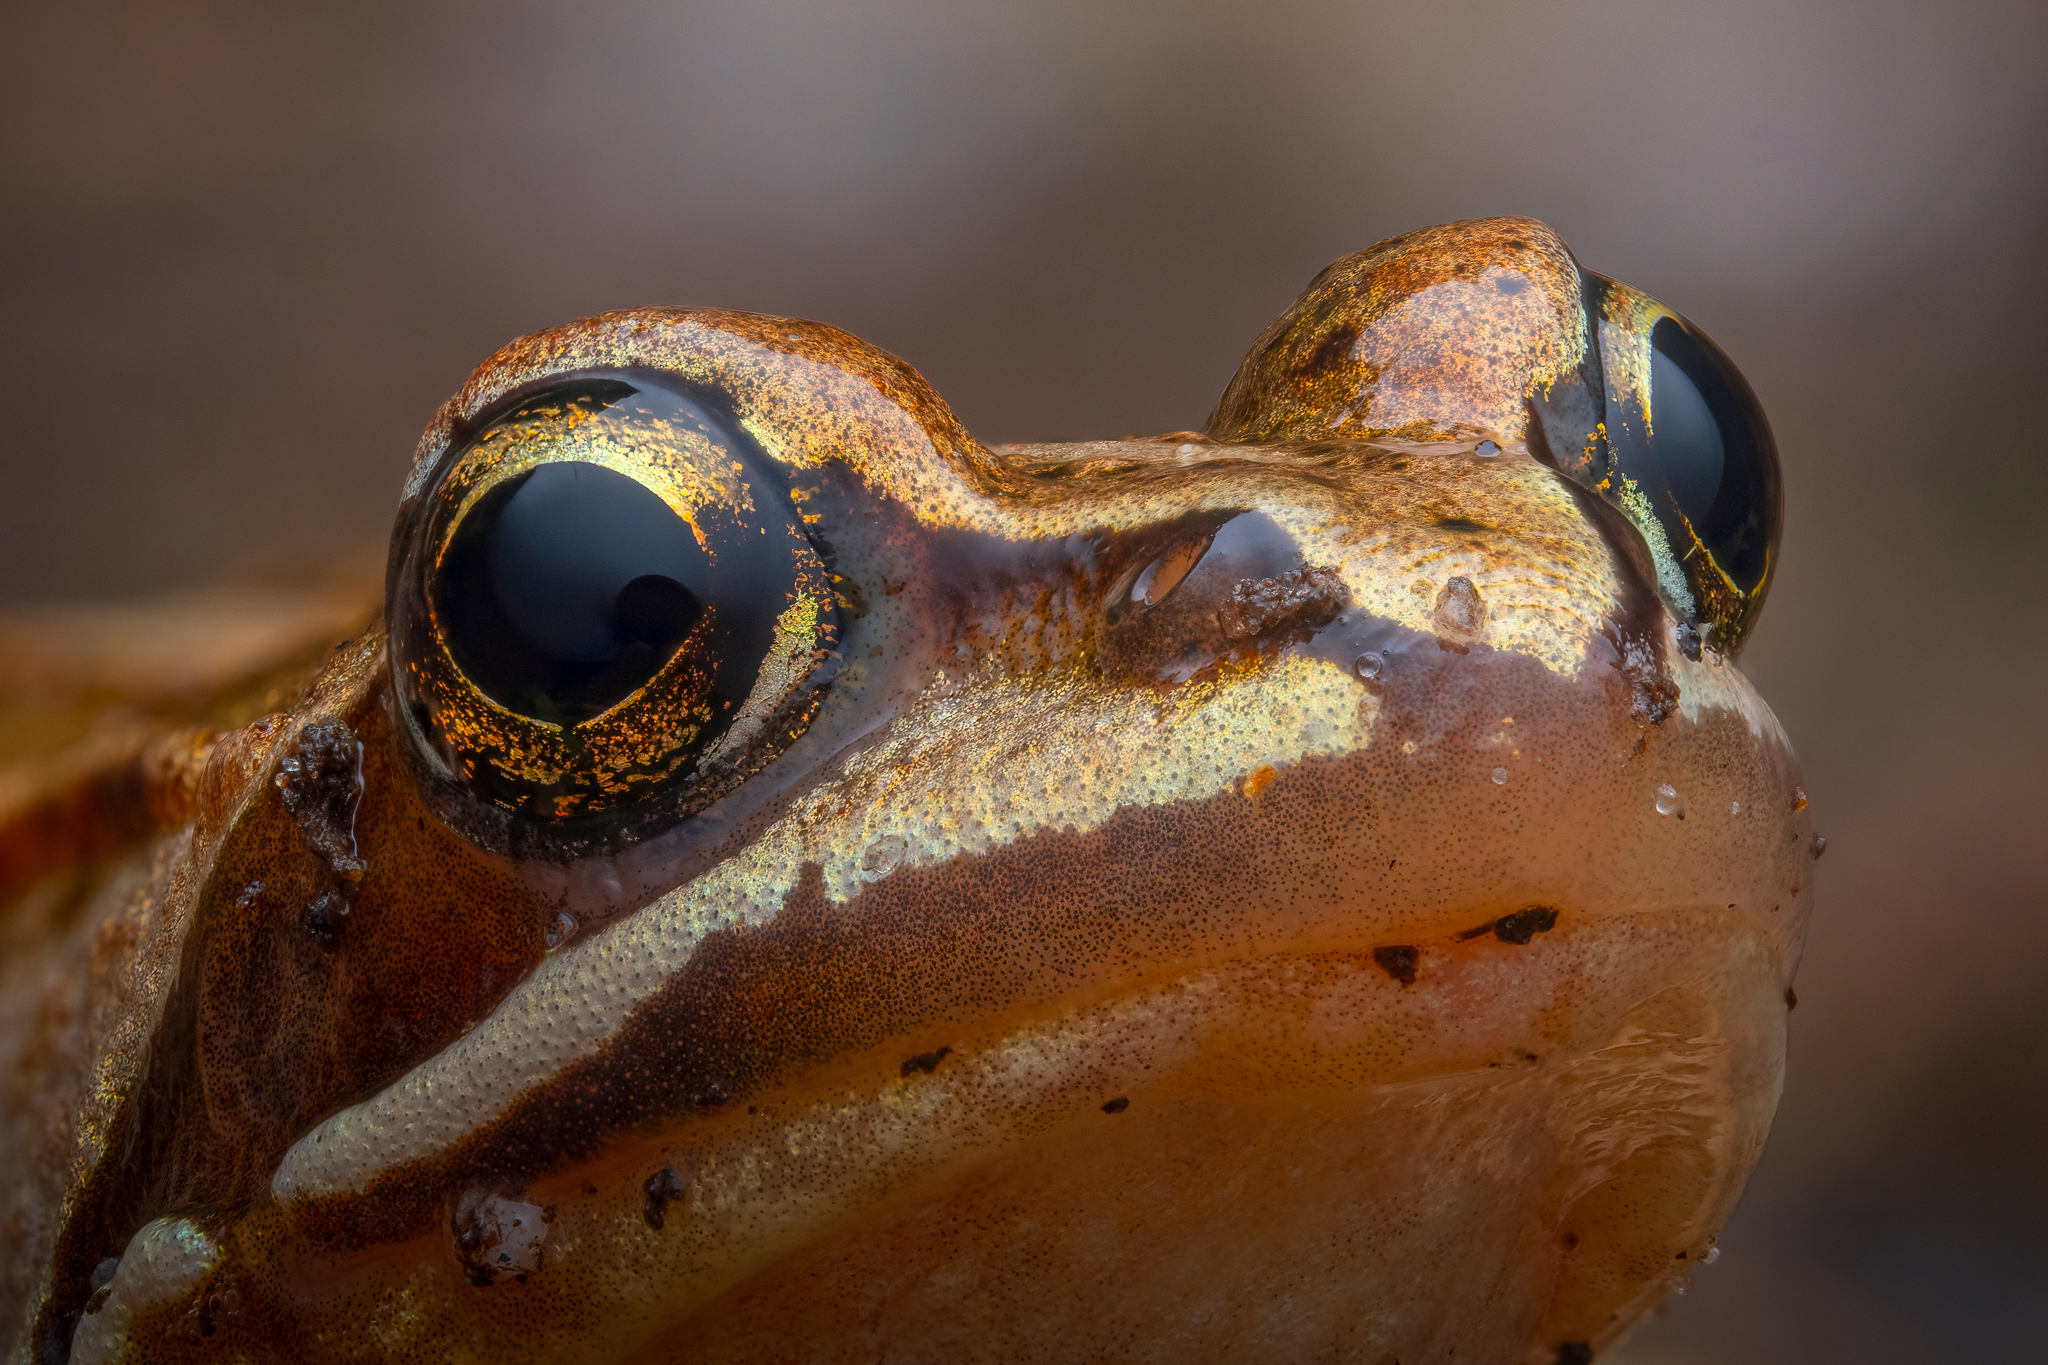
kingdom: Animalia
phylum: Chordata
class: Amphibia
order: Anura
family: Ranidae
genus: Rana
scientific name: Rana arvalis
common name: Moor frog
